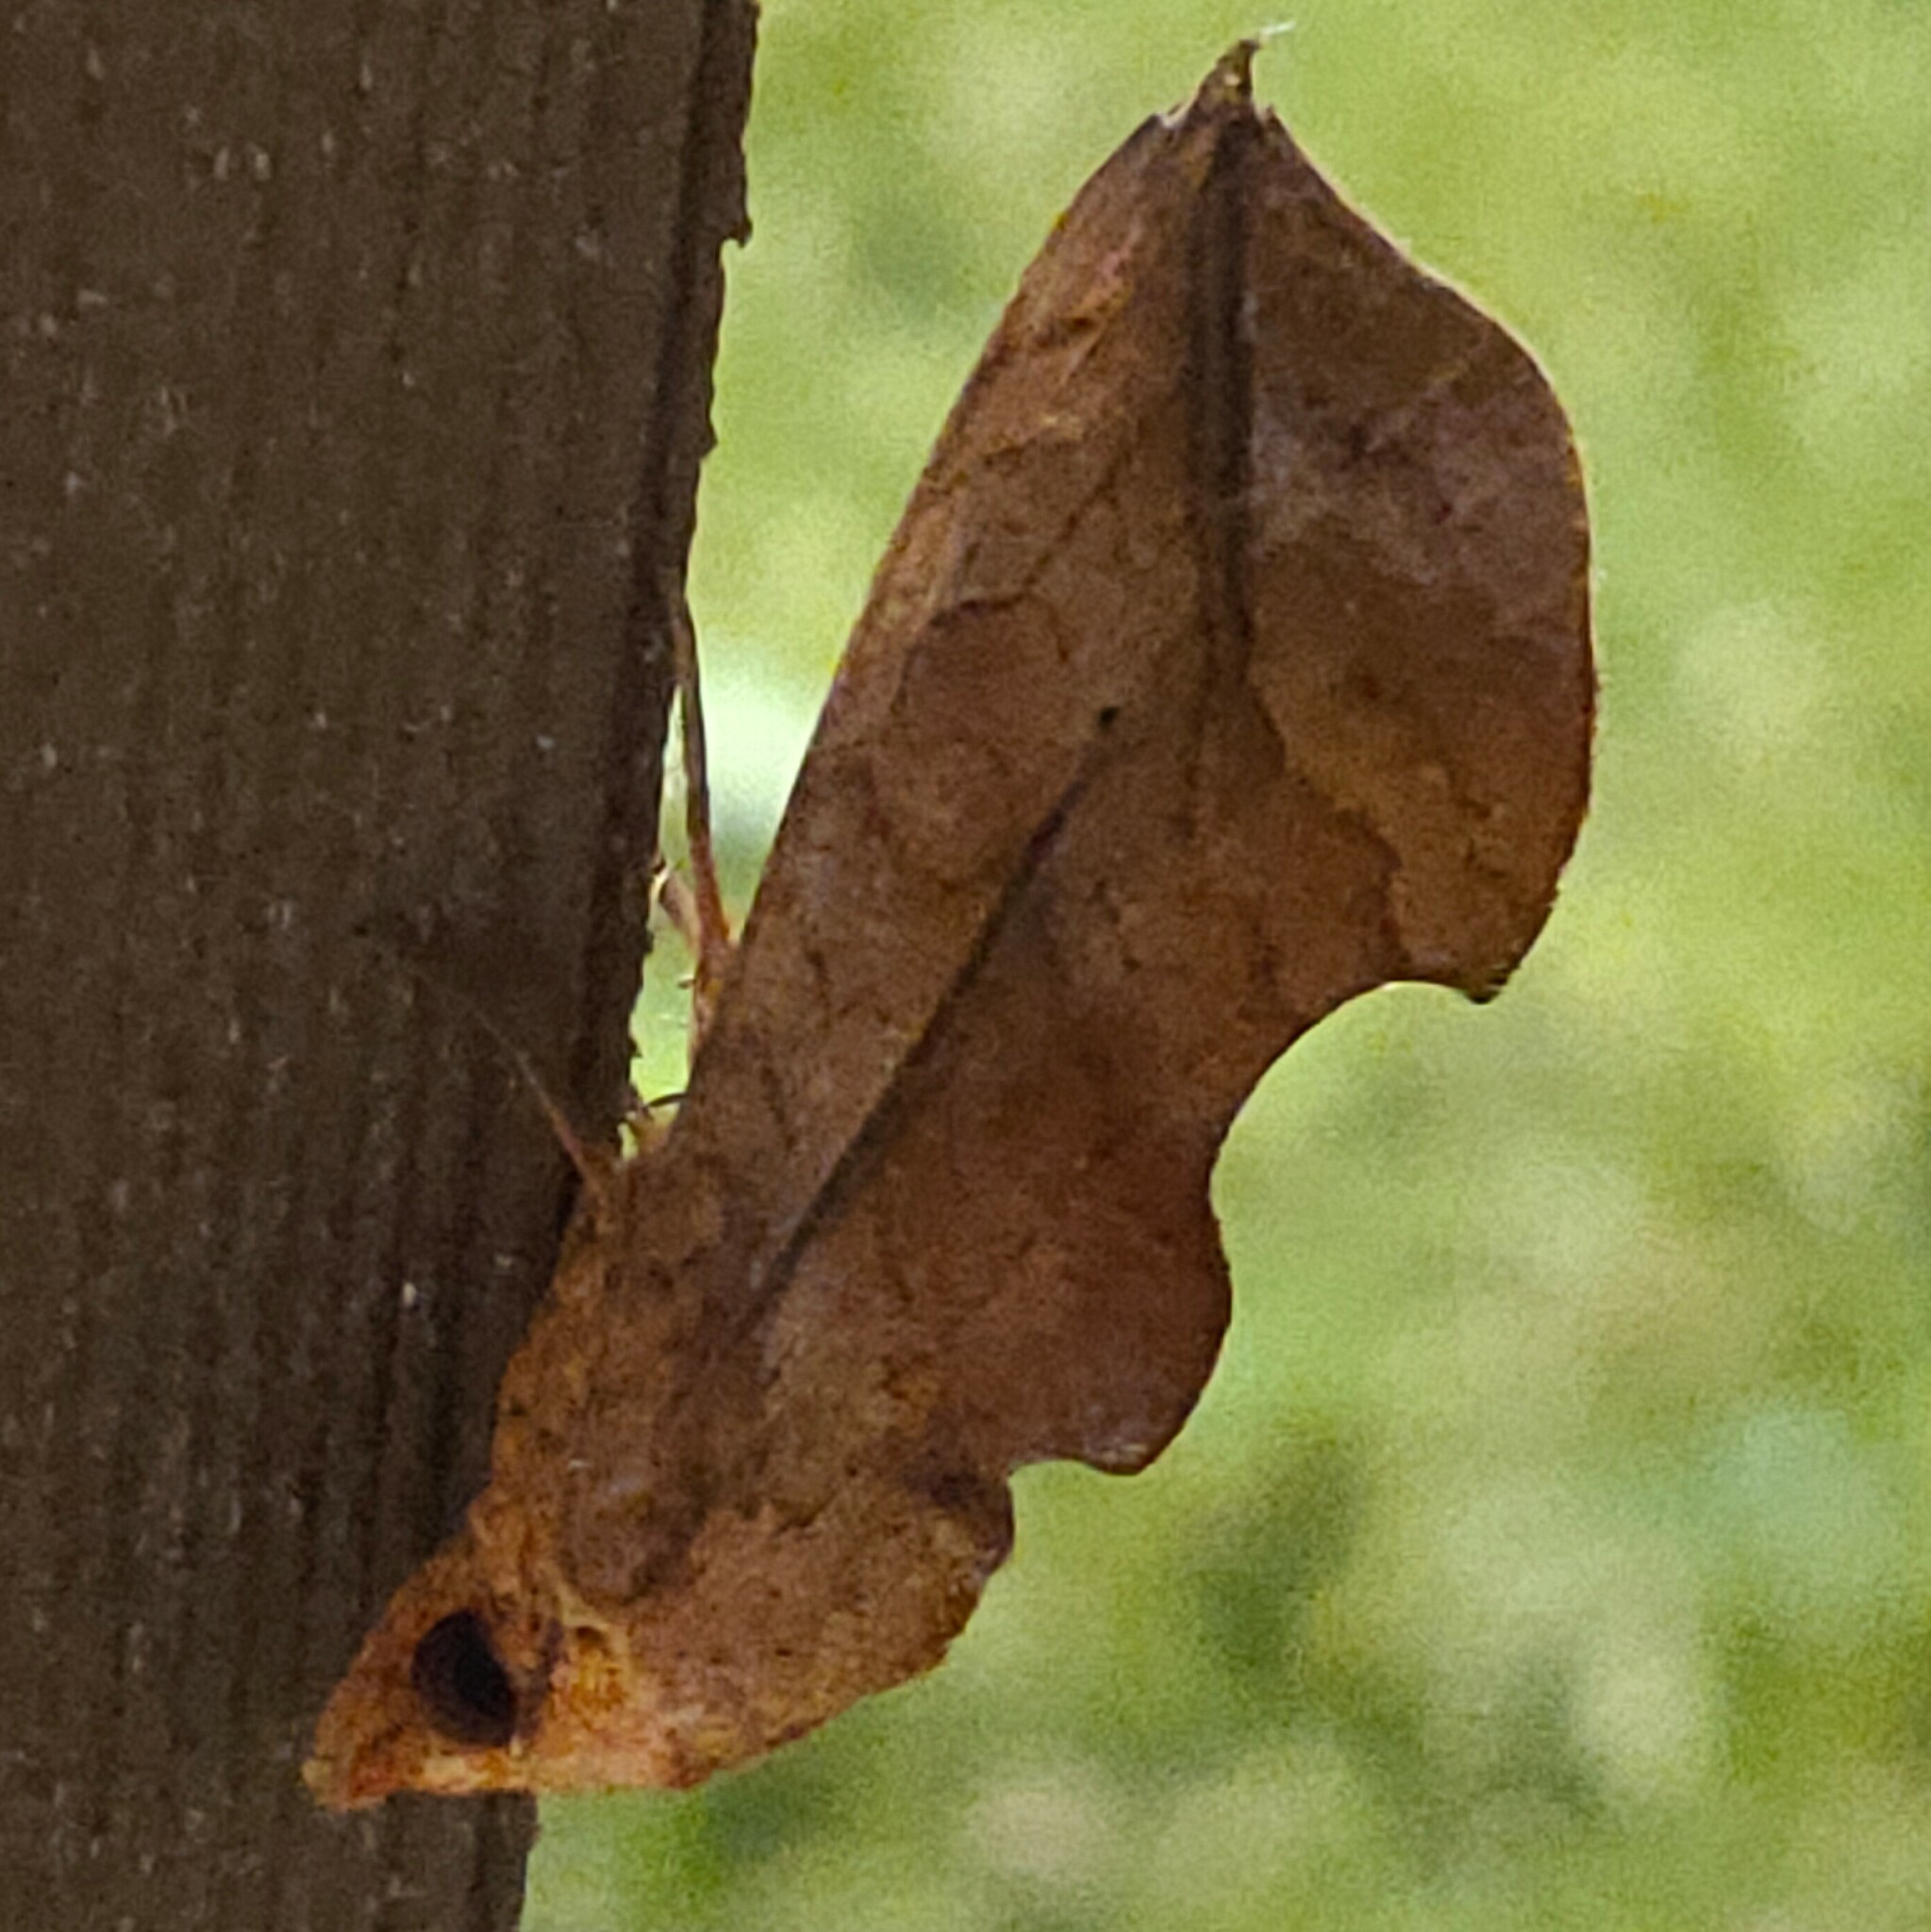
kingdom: Animalia
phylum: Arthropoda
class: Insecta
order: Lepidoptera
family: Erebidae
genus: Oraesia
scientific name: Oraesia excavata
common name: Moth
